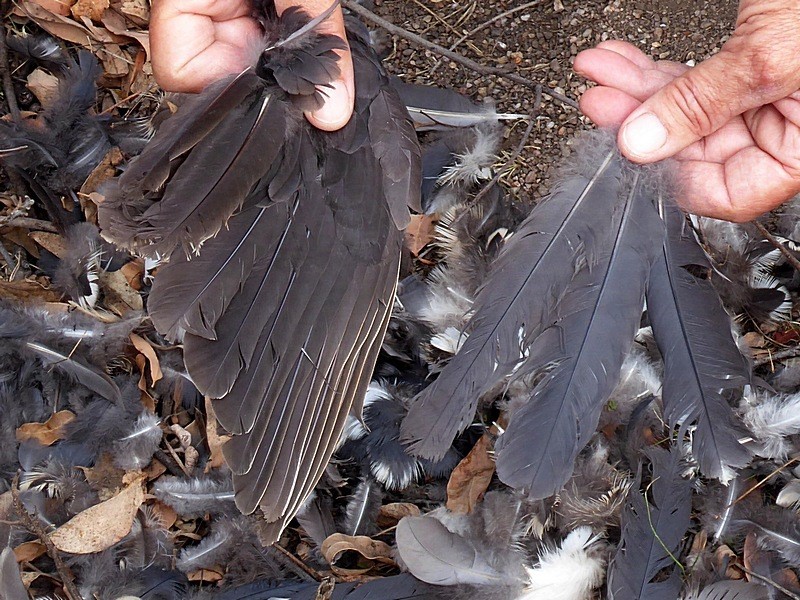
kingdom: Animalia
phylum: Chordata
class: Aves
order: Columbiformes
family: Columbidae
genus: Leucosarcia
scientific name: Leucosarcia melanoleuca
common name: Wonga pigeon
